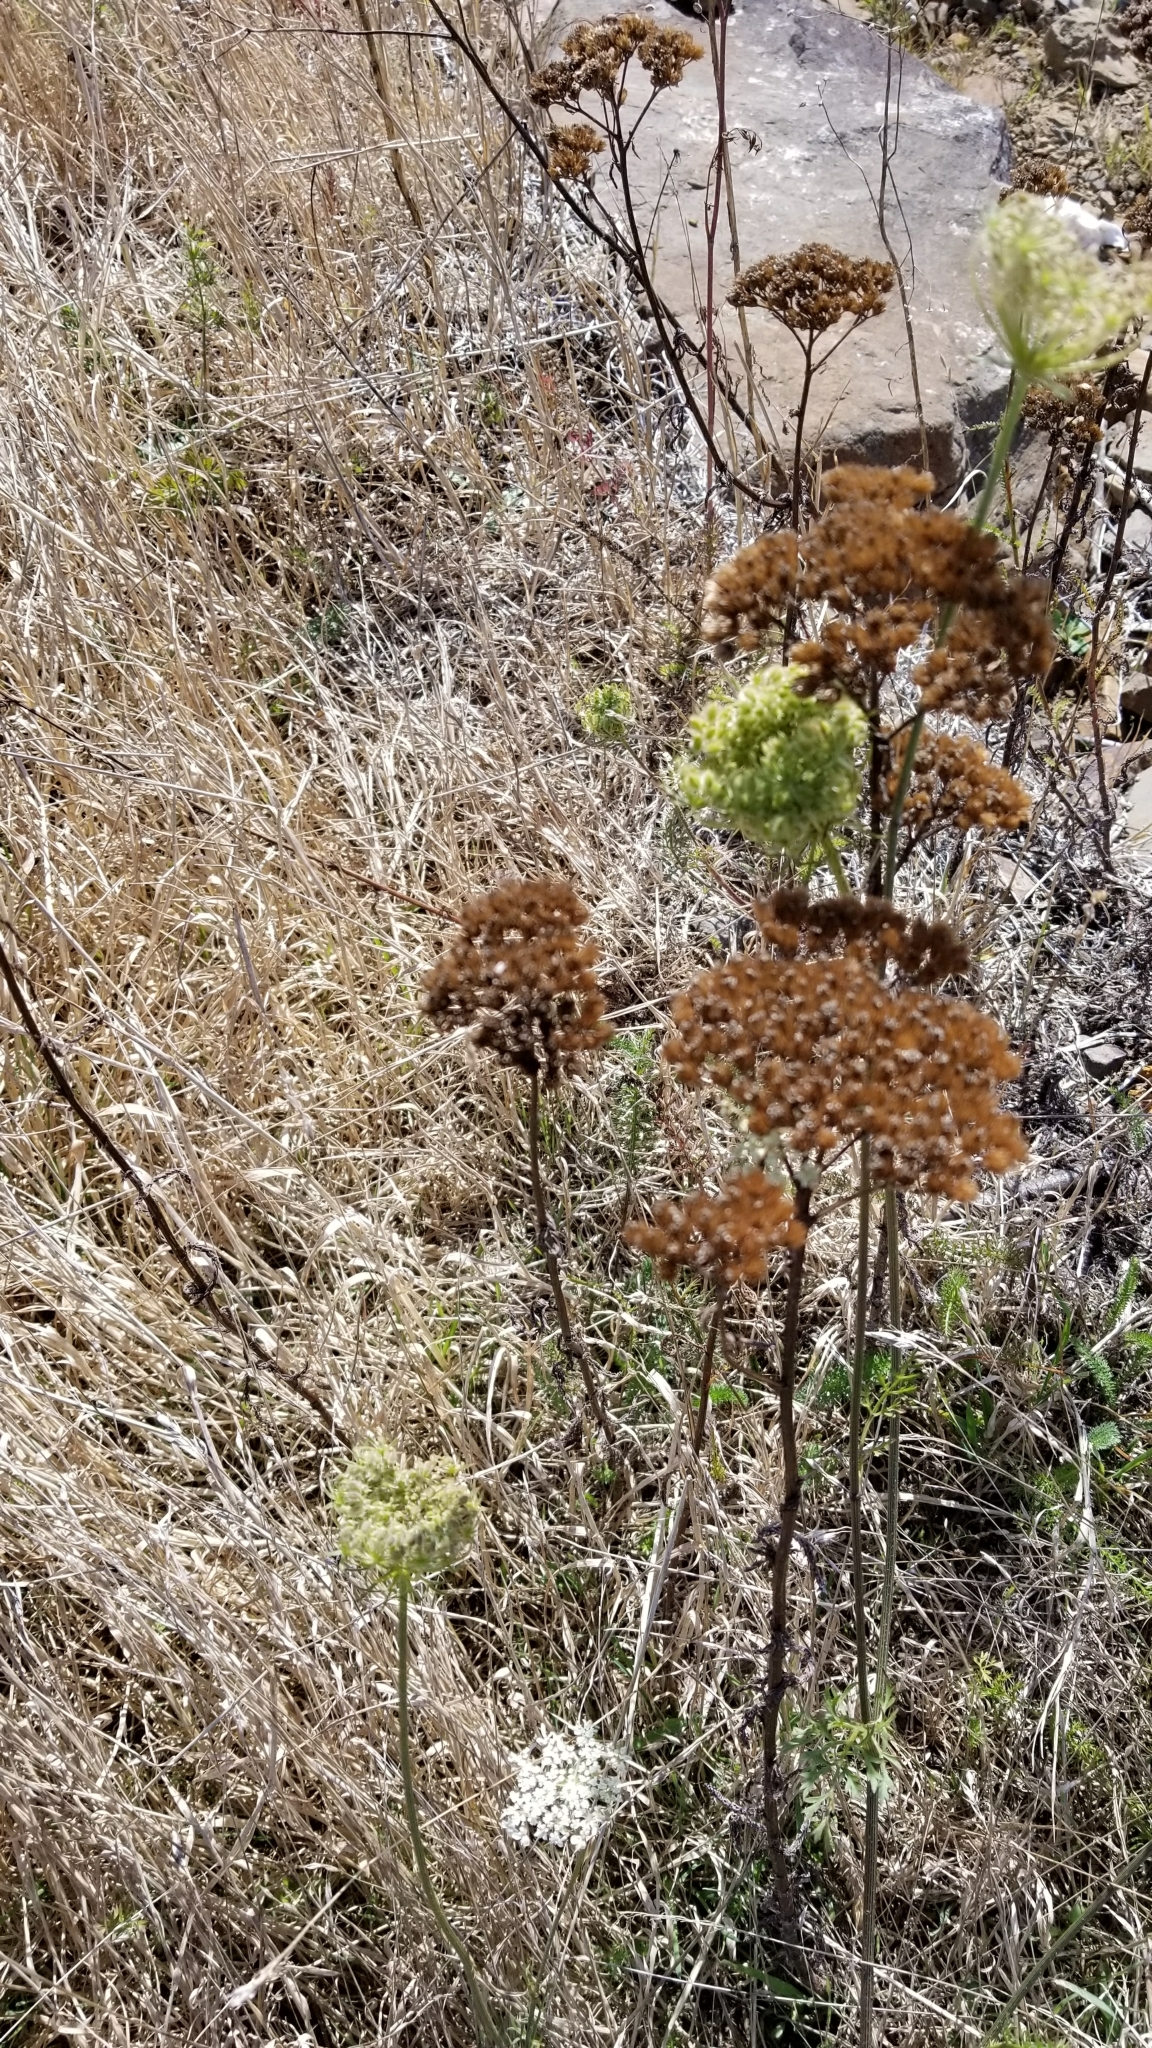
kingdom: Plantae
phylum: Tracheophyta
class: Magnoliopsida
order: Asterales
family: Asteraceae
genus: Achillea
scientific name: Achillea millefolium
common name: Yarrow
